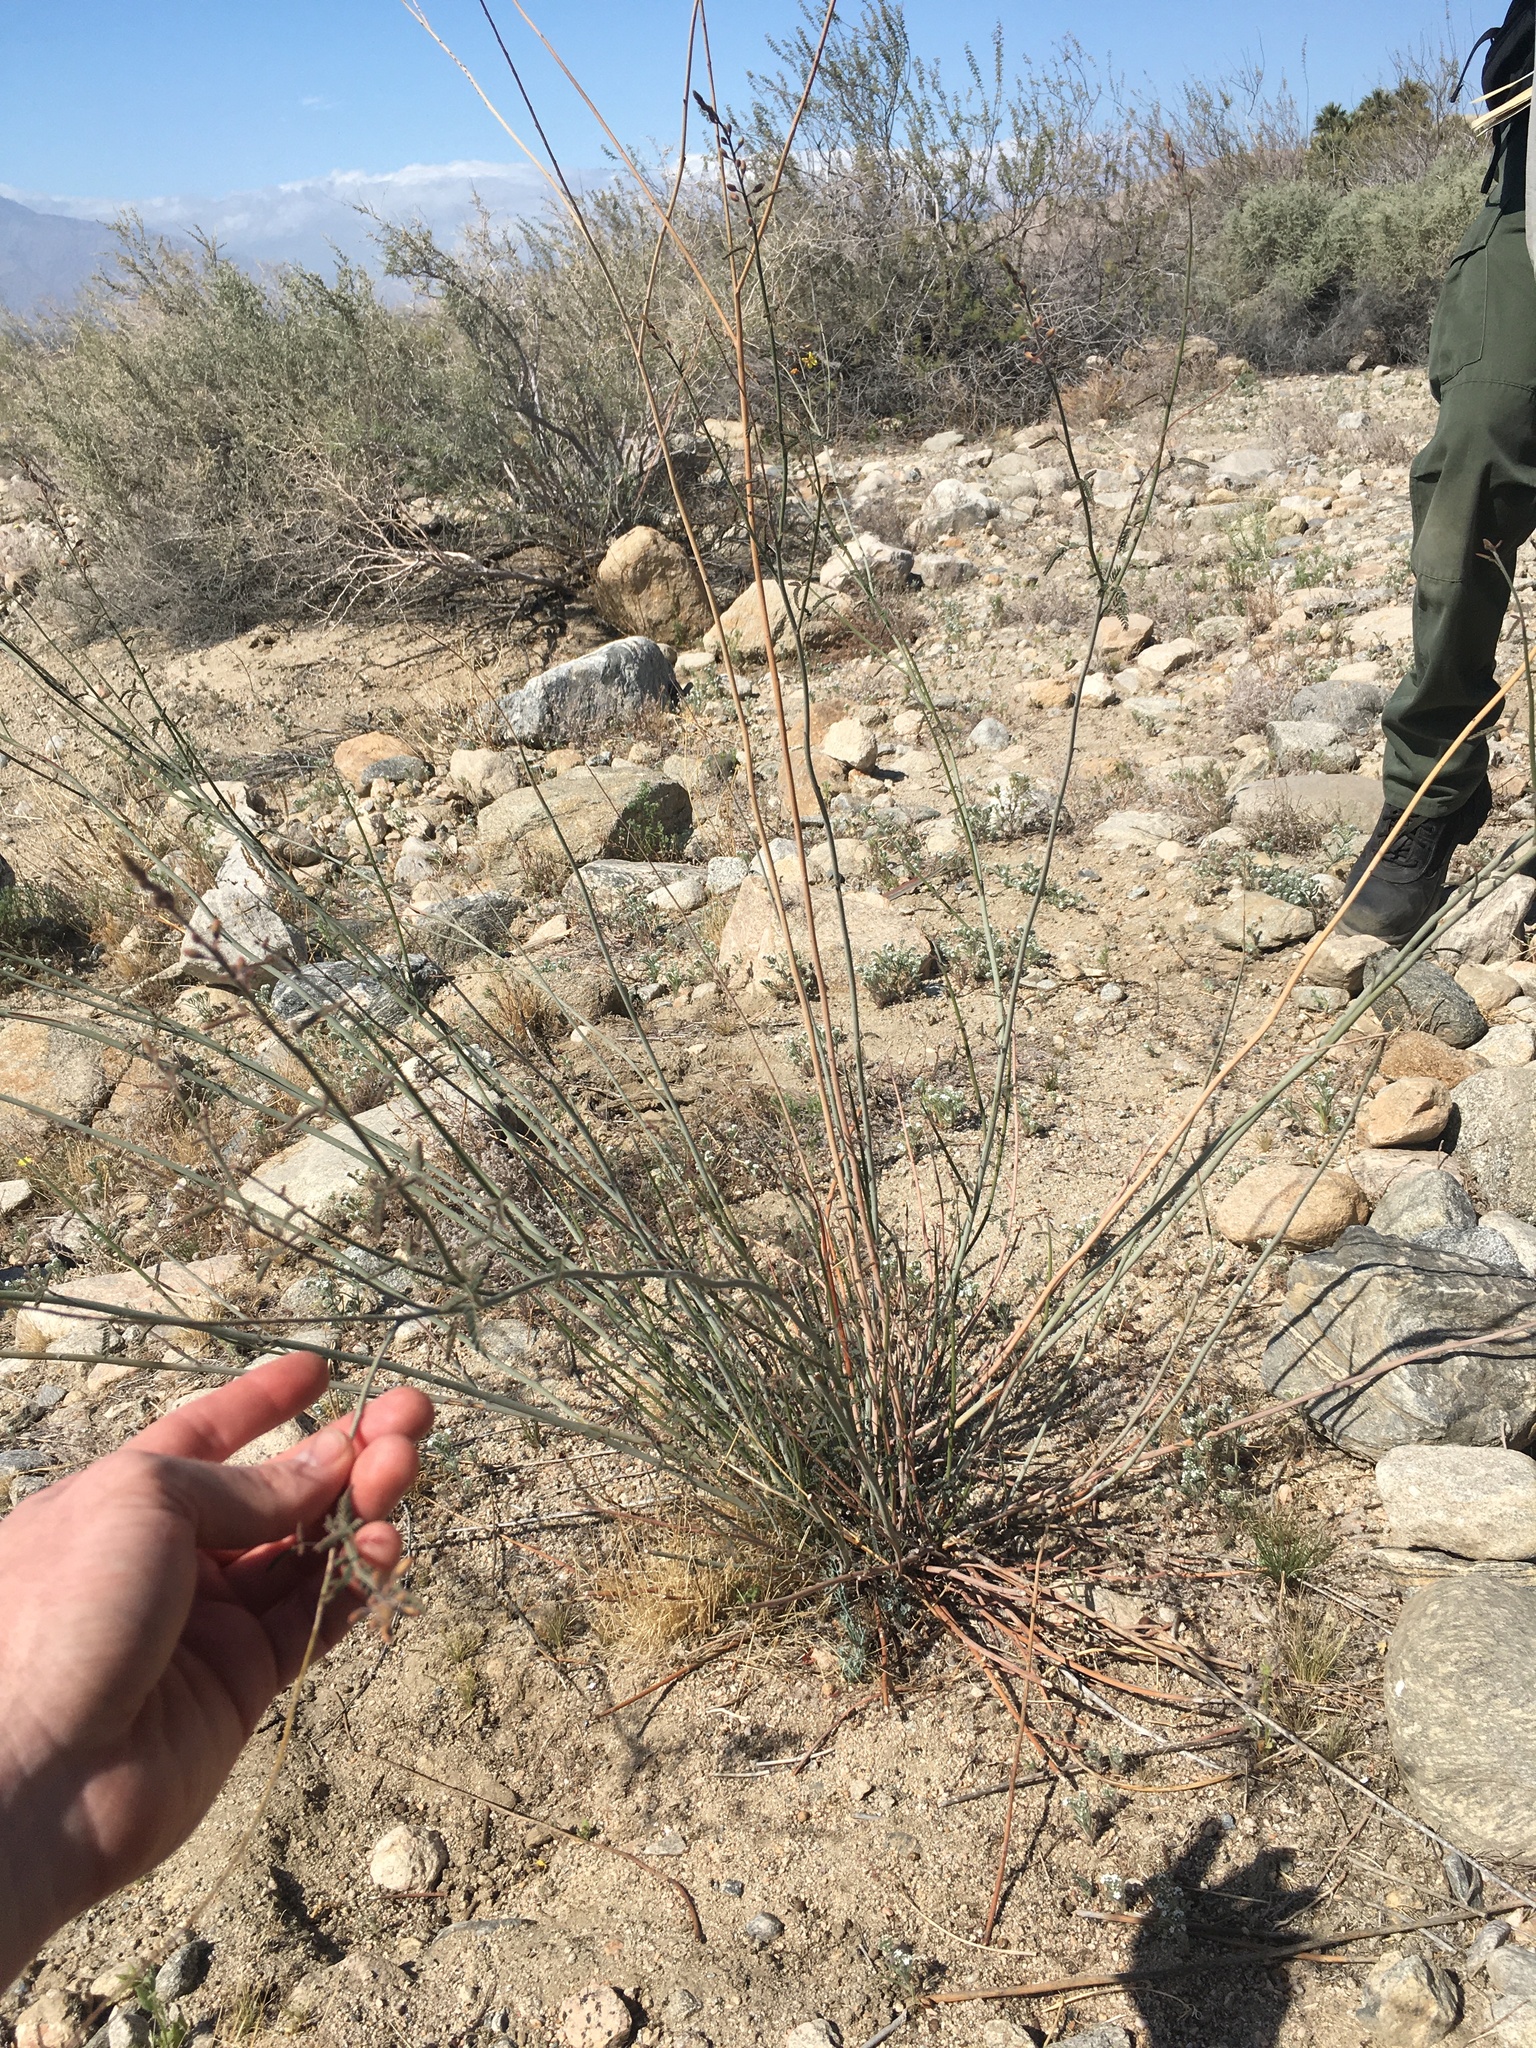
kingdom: Plantae
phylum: Tracheophyta
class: Magnoliopsida
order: Fabales
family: Fabaceae
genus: Hoffmannseggia
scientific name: Hoffmannseggia microphylla
